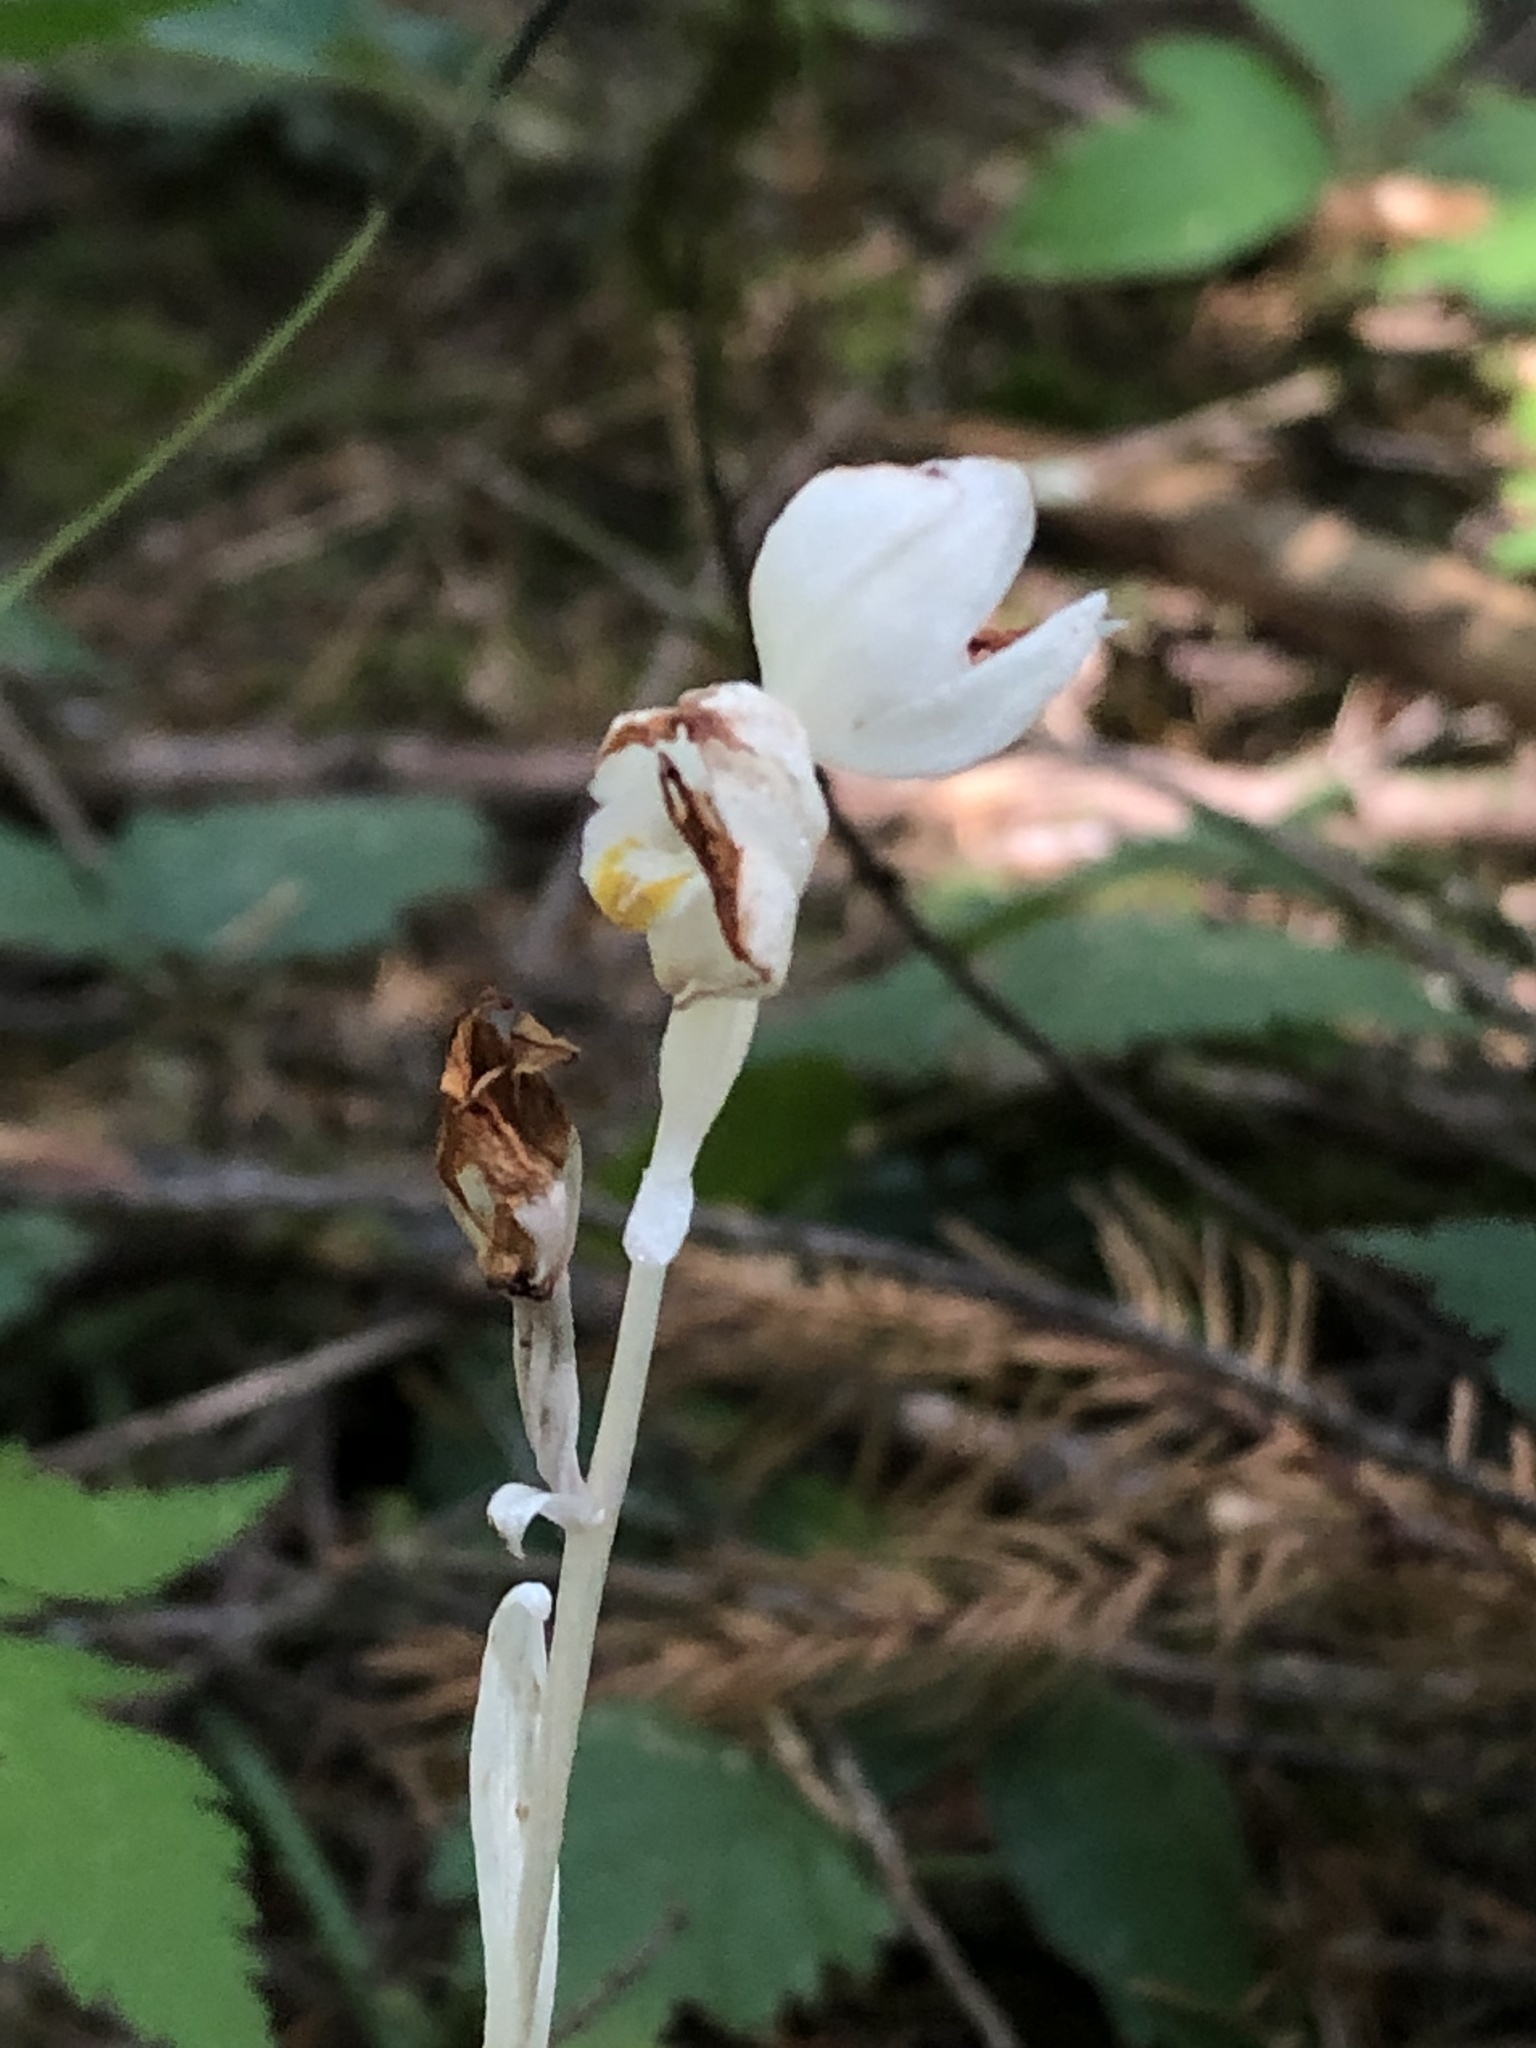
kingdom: Plantae
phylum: Tracheophyta
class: Liliopsida
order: Asparagales
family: Orchidaceae
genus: Cephalanthera
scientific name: Cephalanthera austiniae
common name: Phantom orchid
